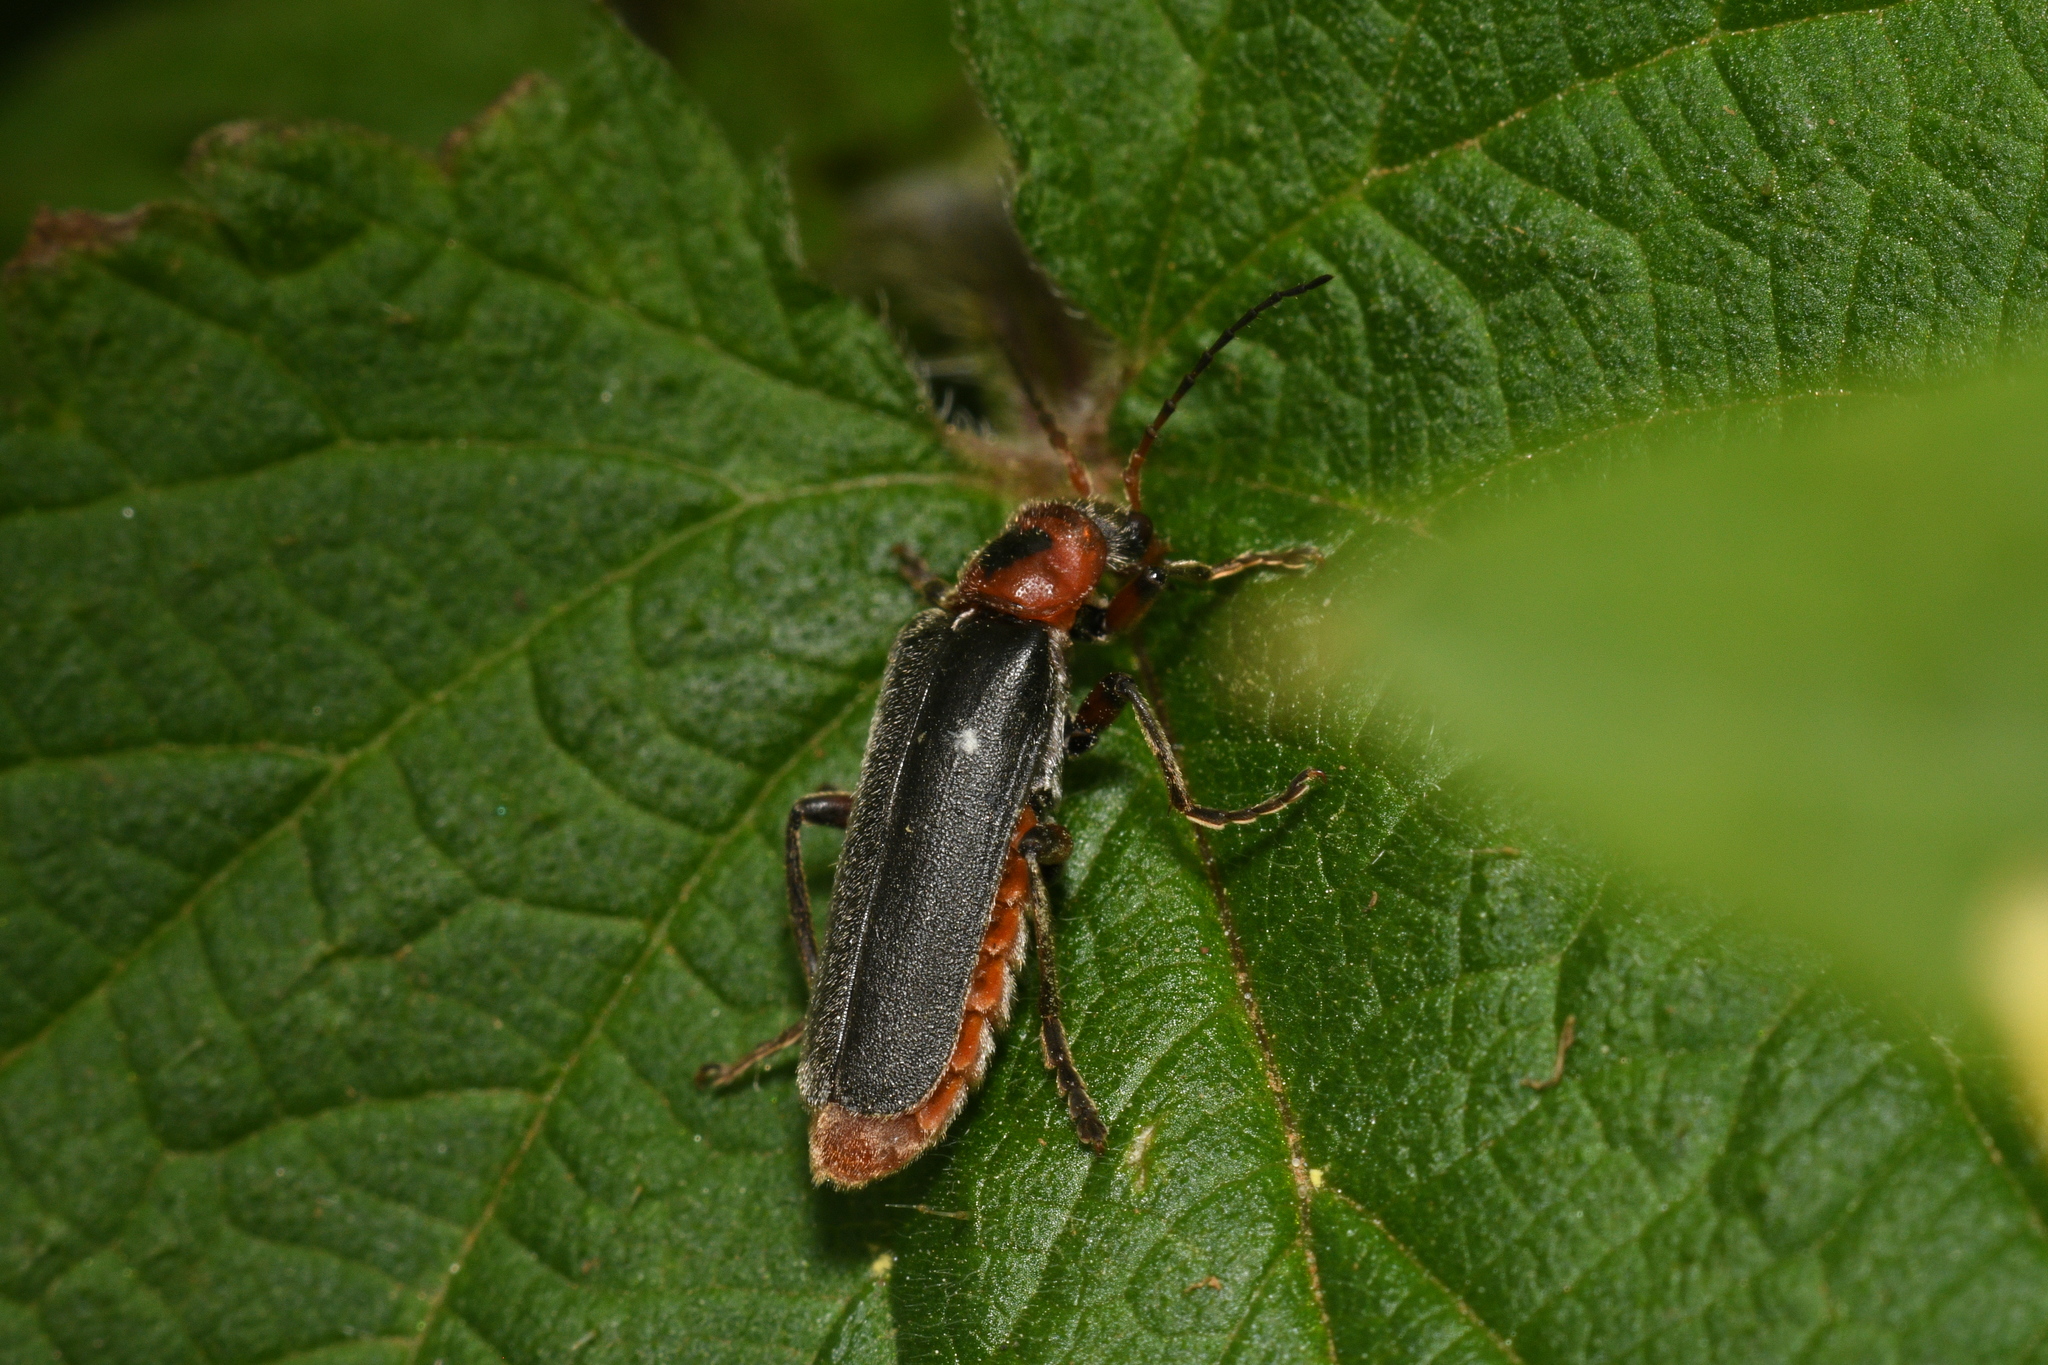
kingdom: Animalia
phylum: Arthropoda
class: Insecta
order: Coleoptera
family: Cantharidae
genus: Cantharis
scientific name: Cantharis rustica
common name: Soldier beetle
